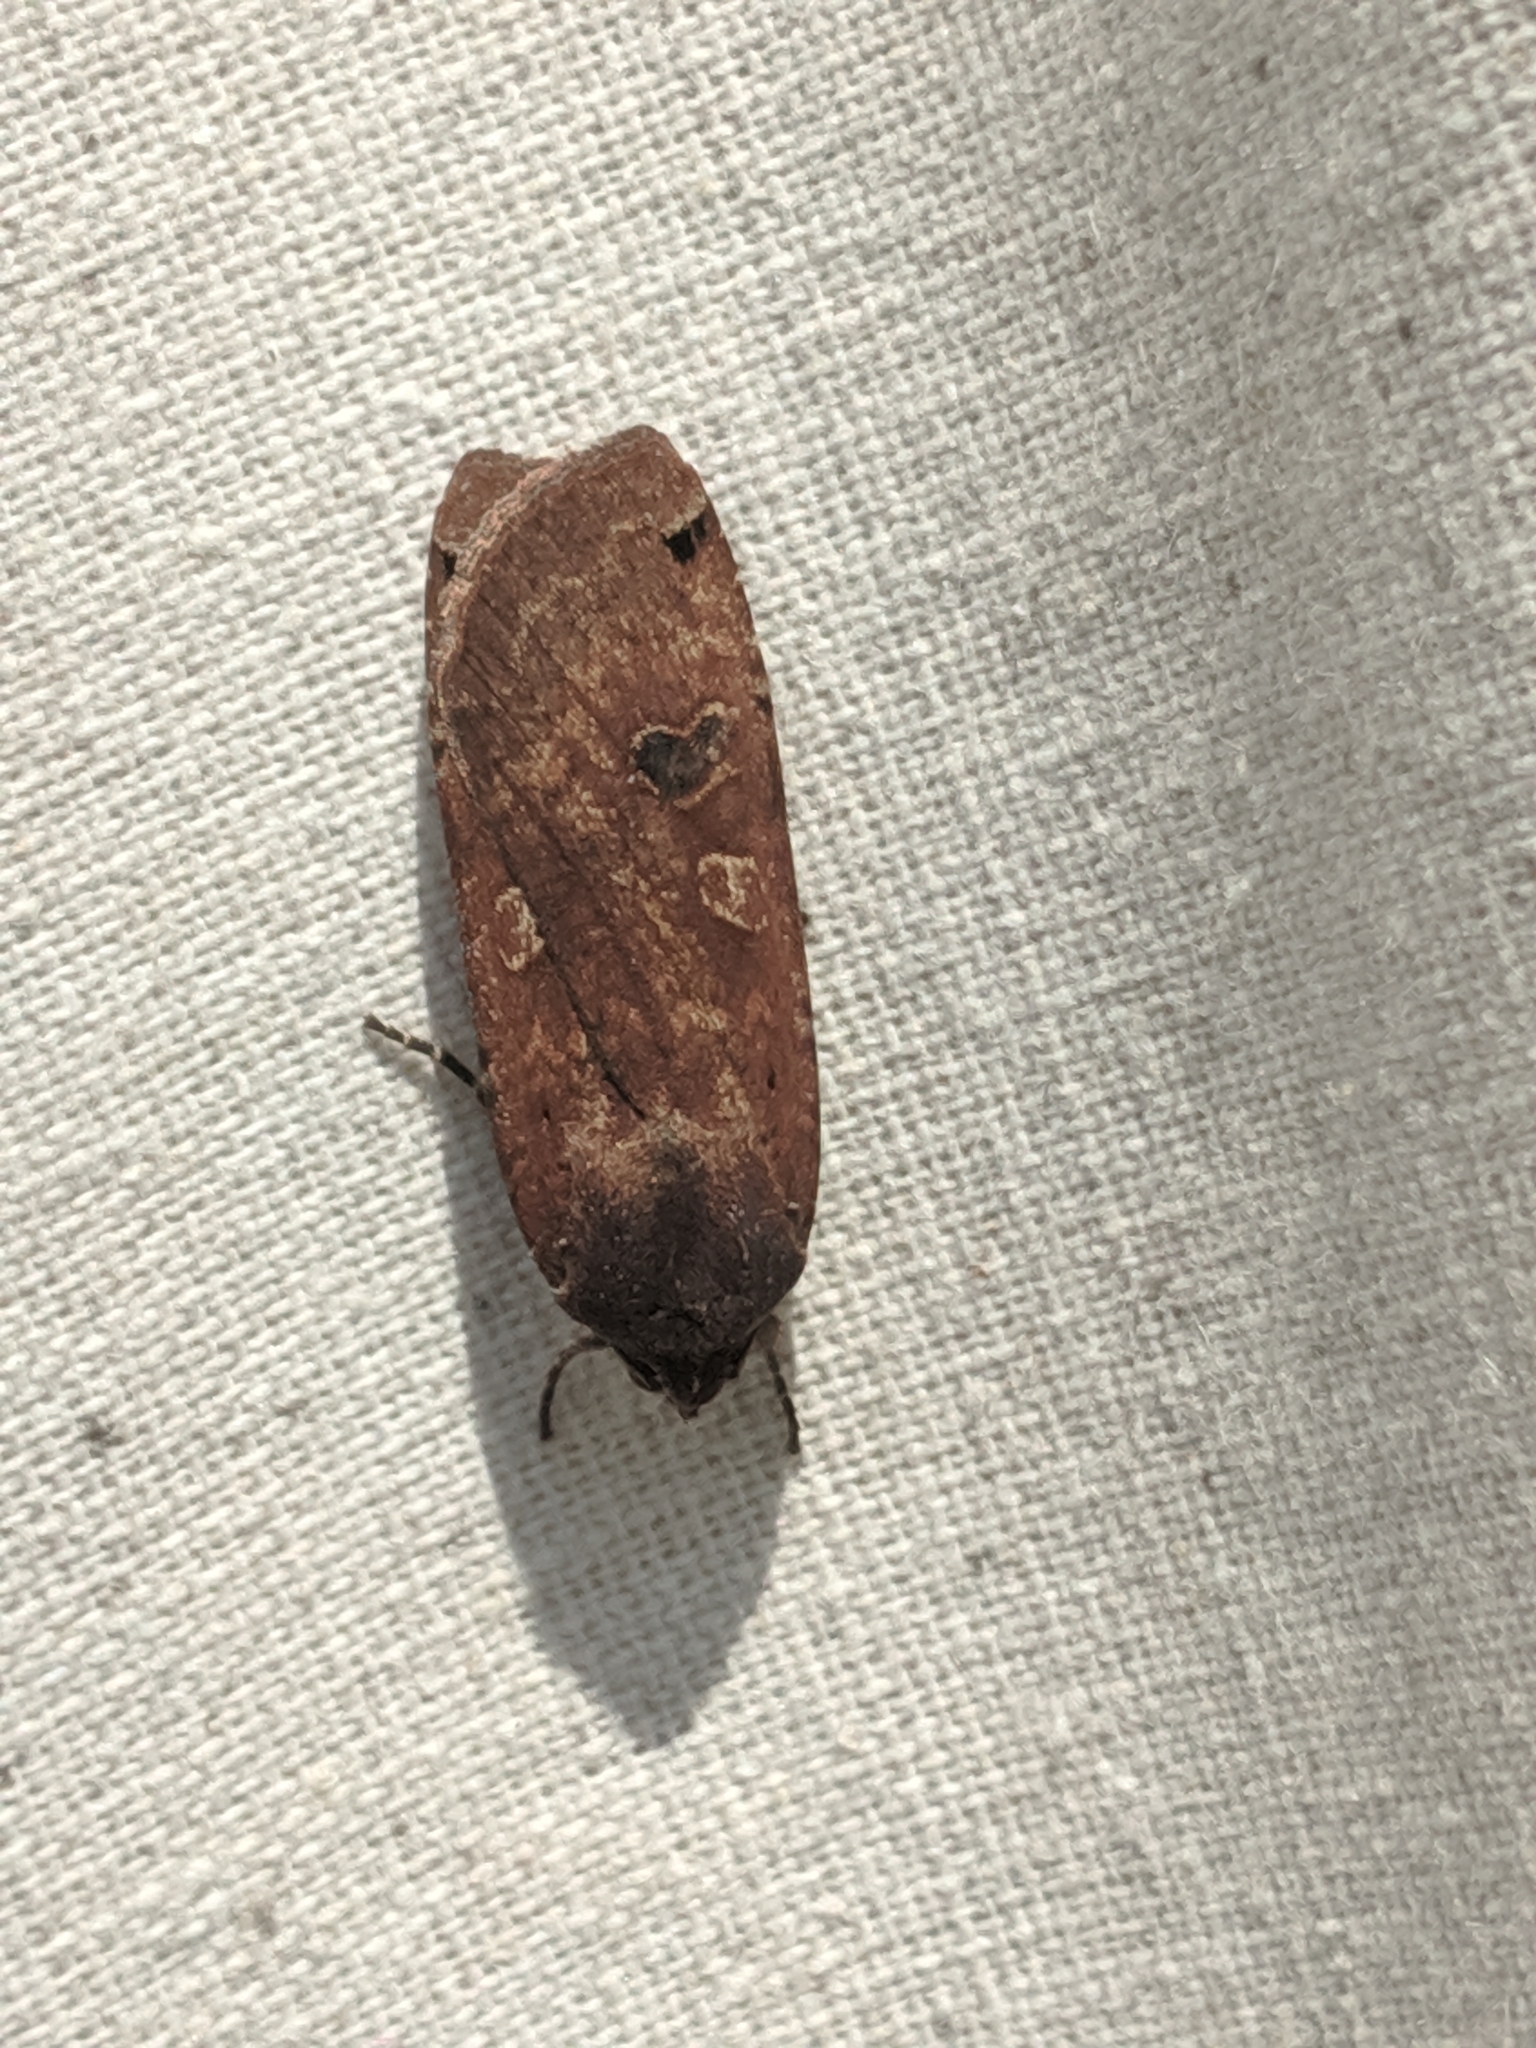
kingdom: Animalia
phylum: Arthropoda
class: Insecta
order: Lepidoptera
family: Noctuidae
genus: Noctua
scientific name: Noctua pronuba
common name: Large yellow underwing
